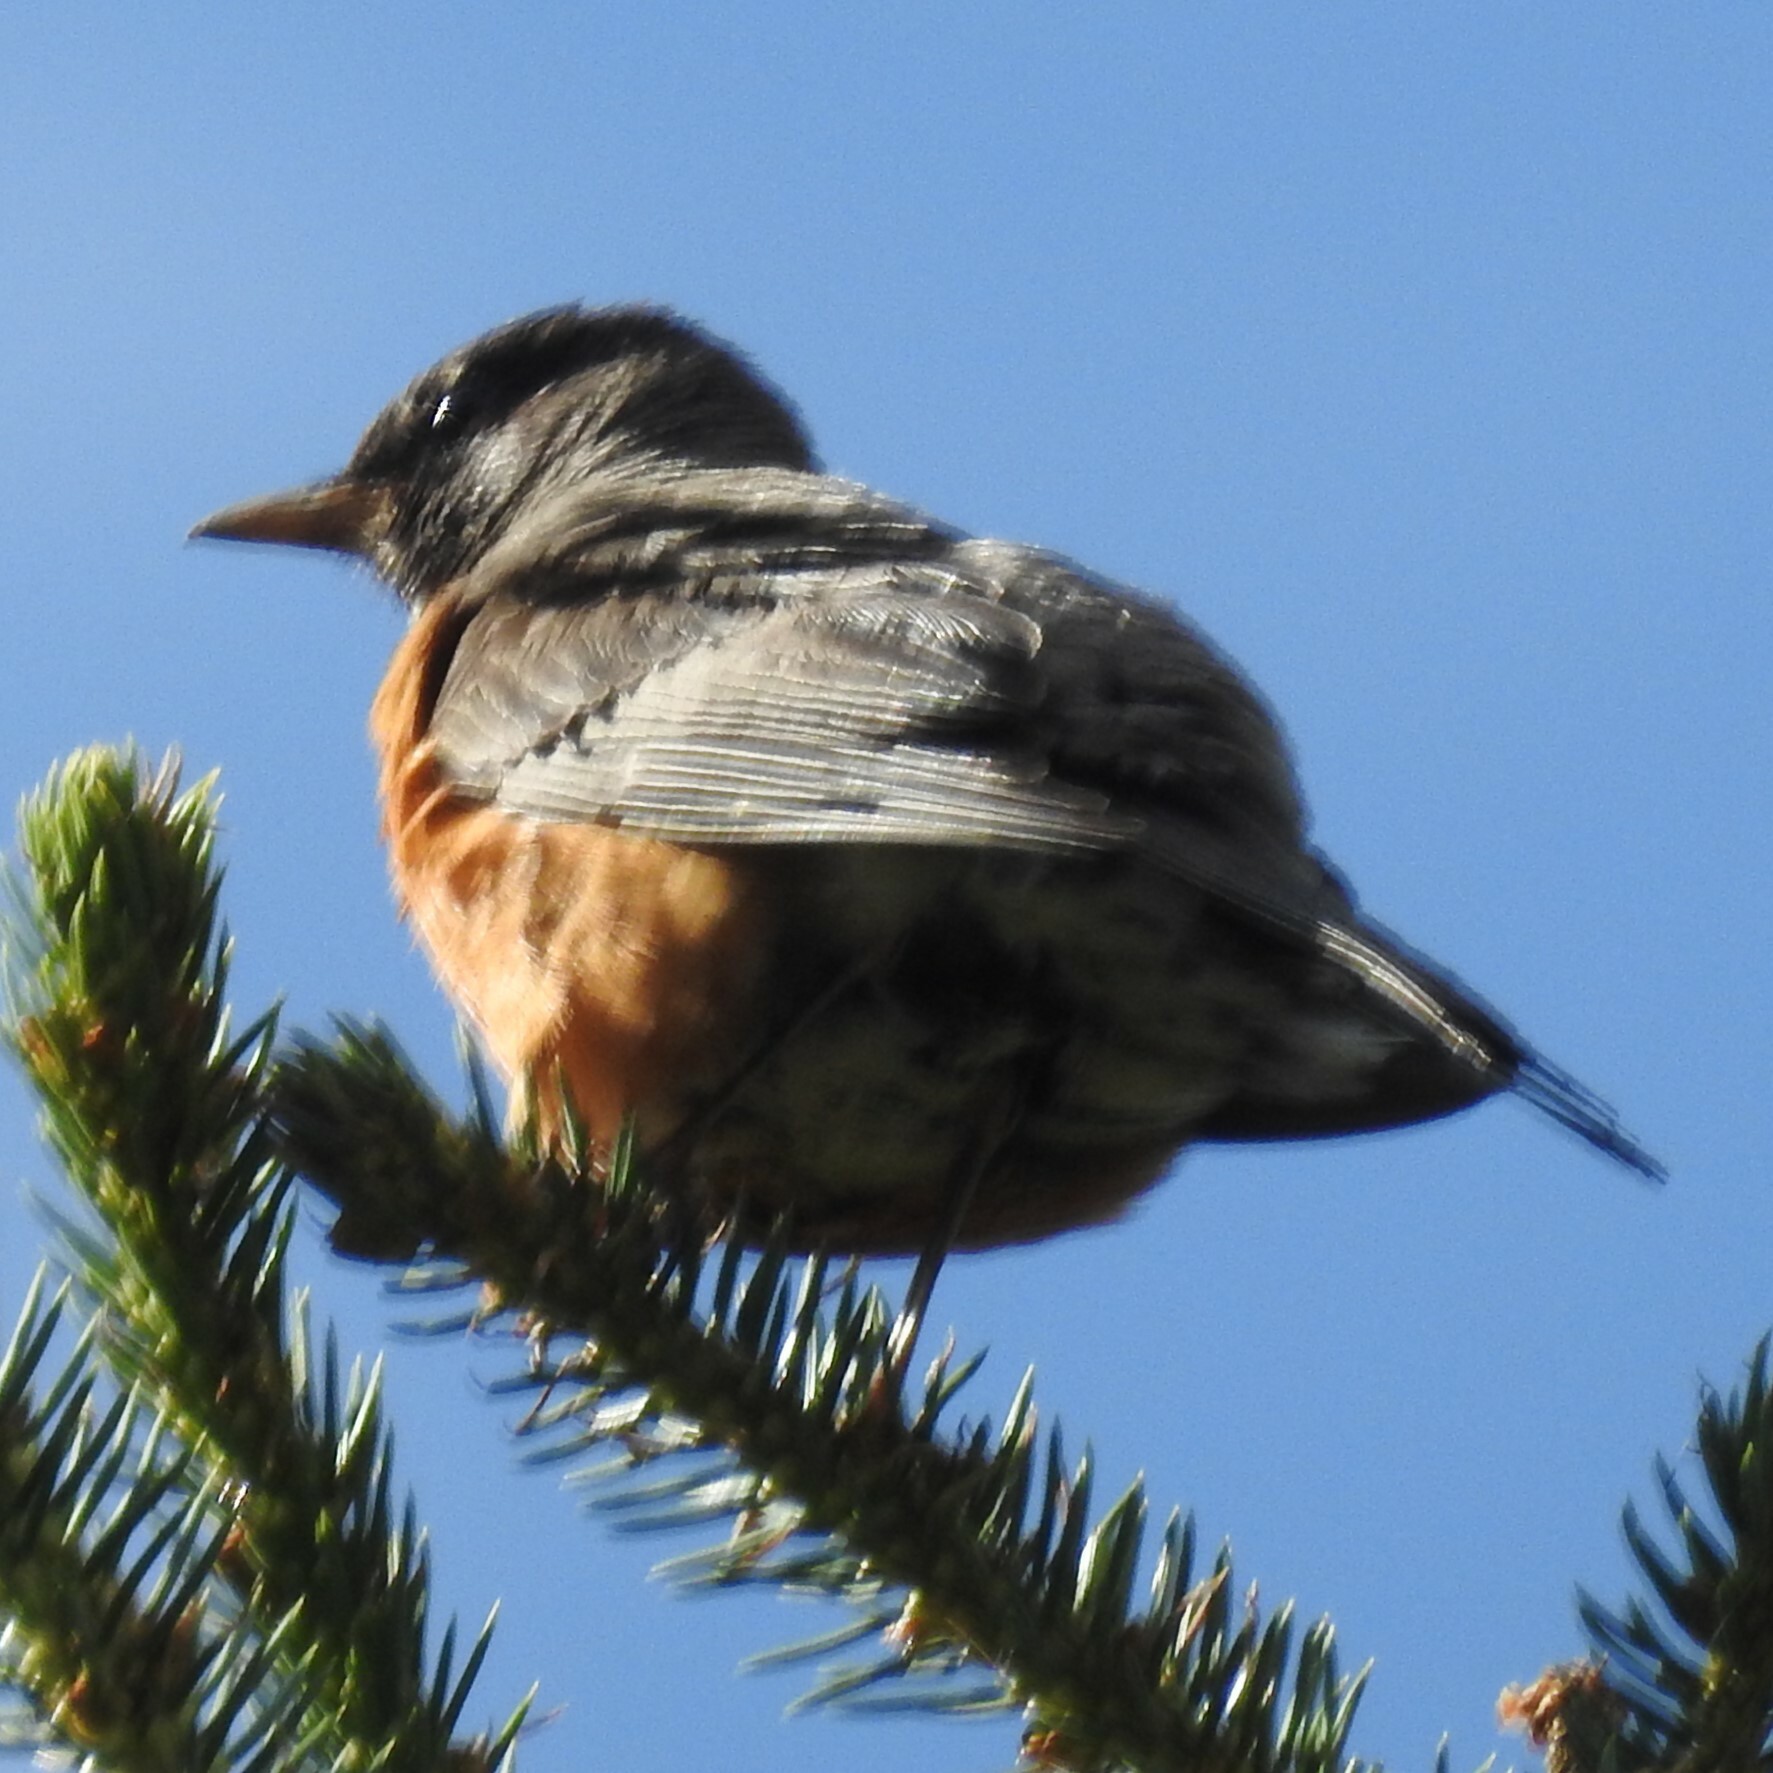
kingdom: Animalia
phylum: Chordata
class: Aves
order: Passeriformes
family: Turdidae
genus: Turdus
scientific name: Turdus migratorius
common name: American robin
